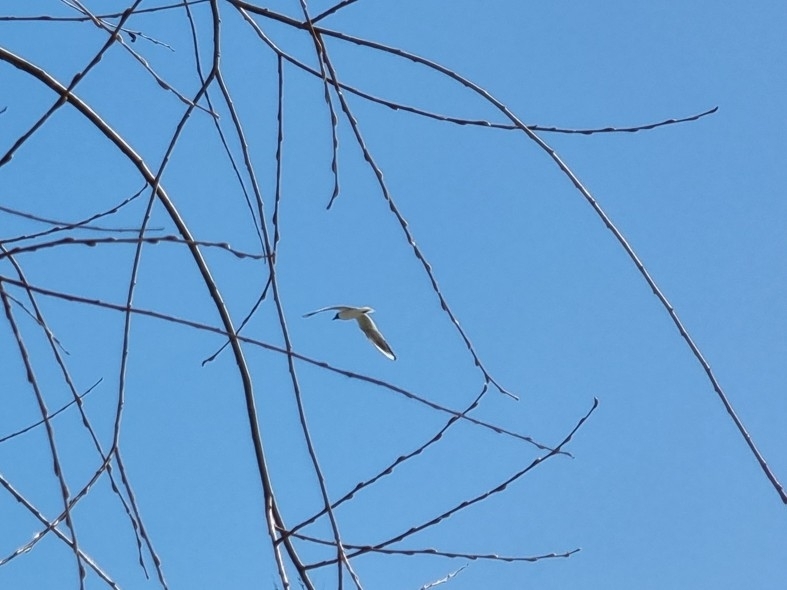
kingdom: Animalia
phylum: Chordata
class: Aves
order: Charadriiformes
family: Laridae
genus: Chroicocephalus
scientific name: Chroicocephalus ridibundus
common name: Black-headed gull
